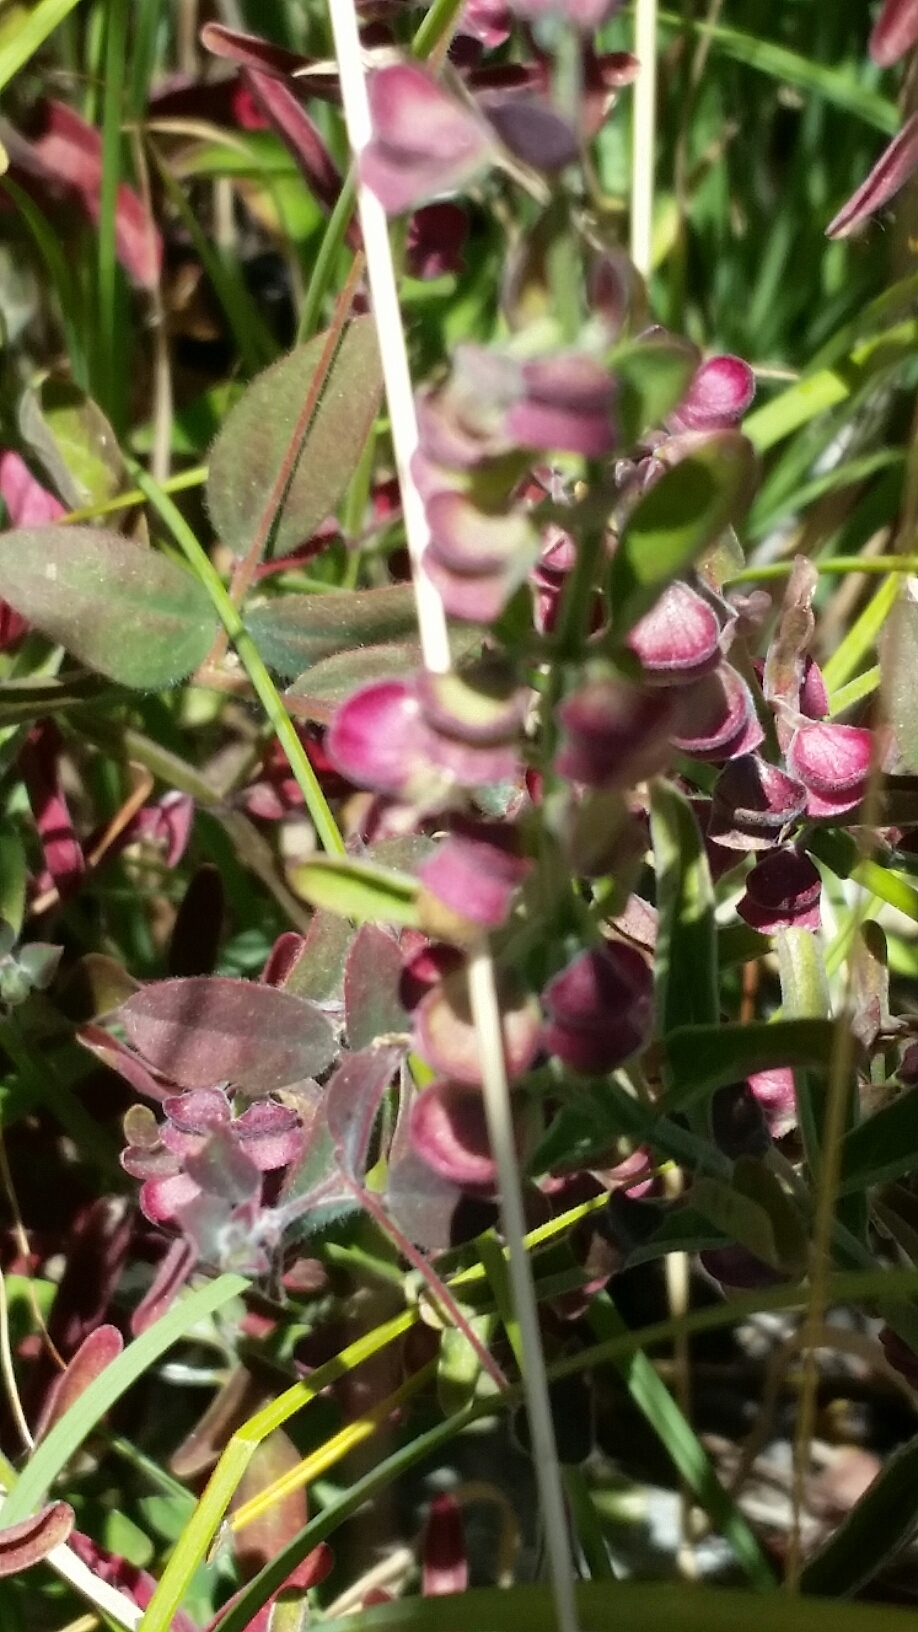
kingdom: Plantae
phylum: Tracheophyta
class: Magnoliopsida
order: Lamiales
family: Lamiaceae
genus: Scutellaria
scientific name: Scutellaria californica
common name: California scullcap
